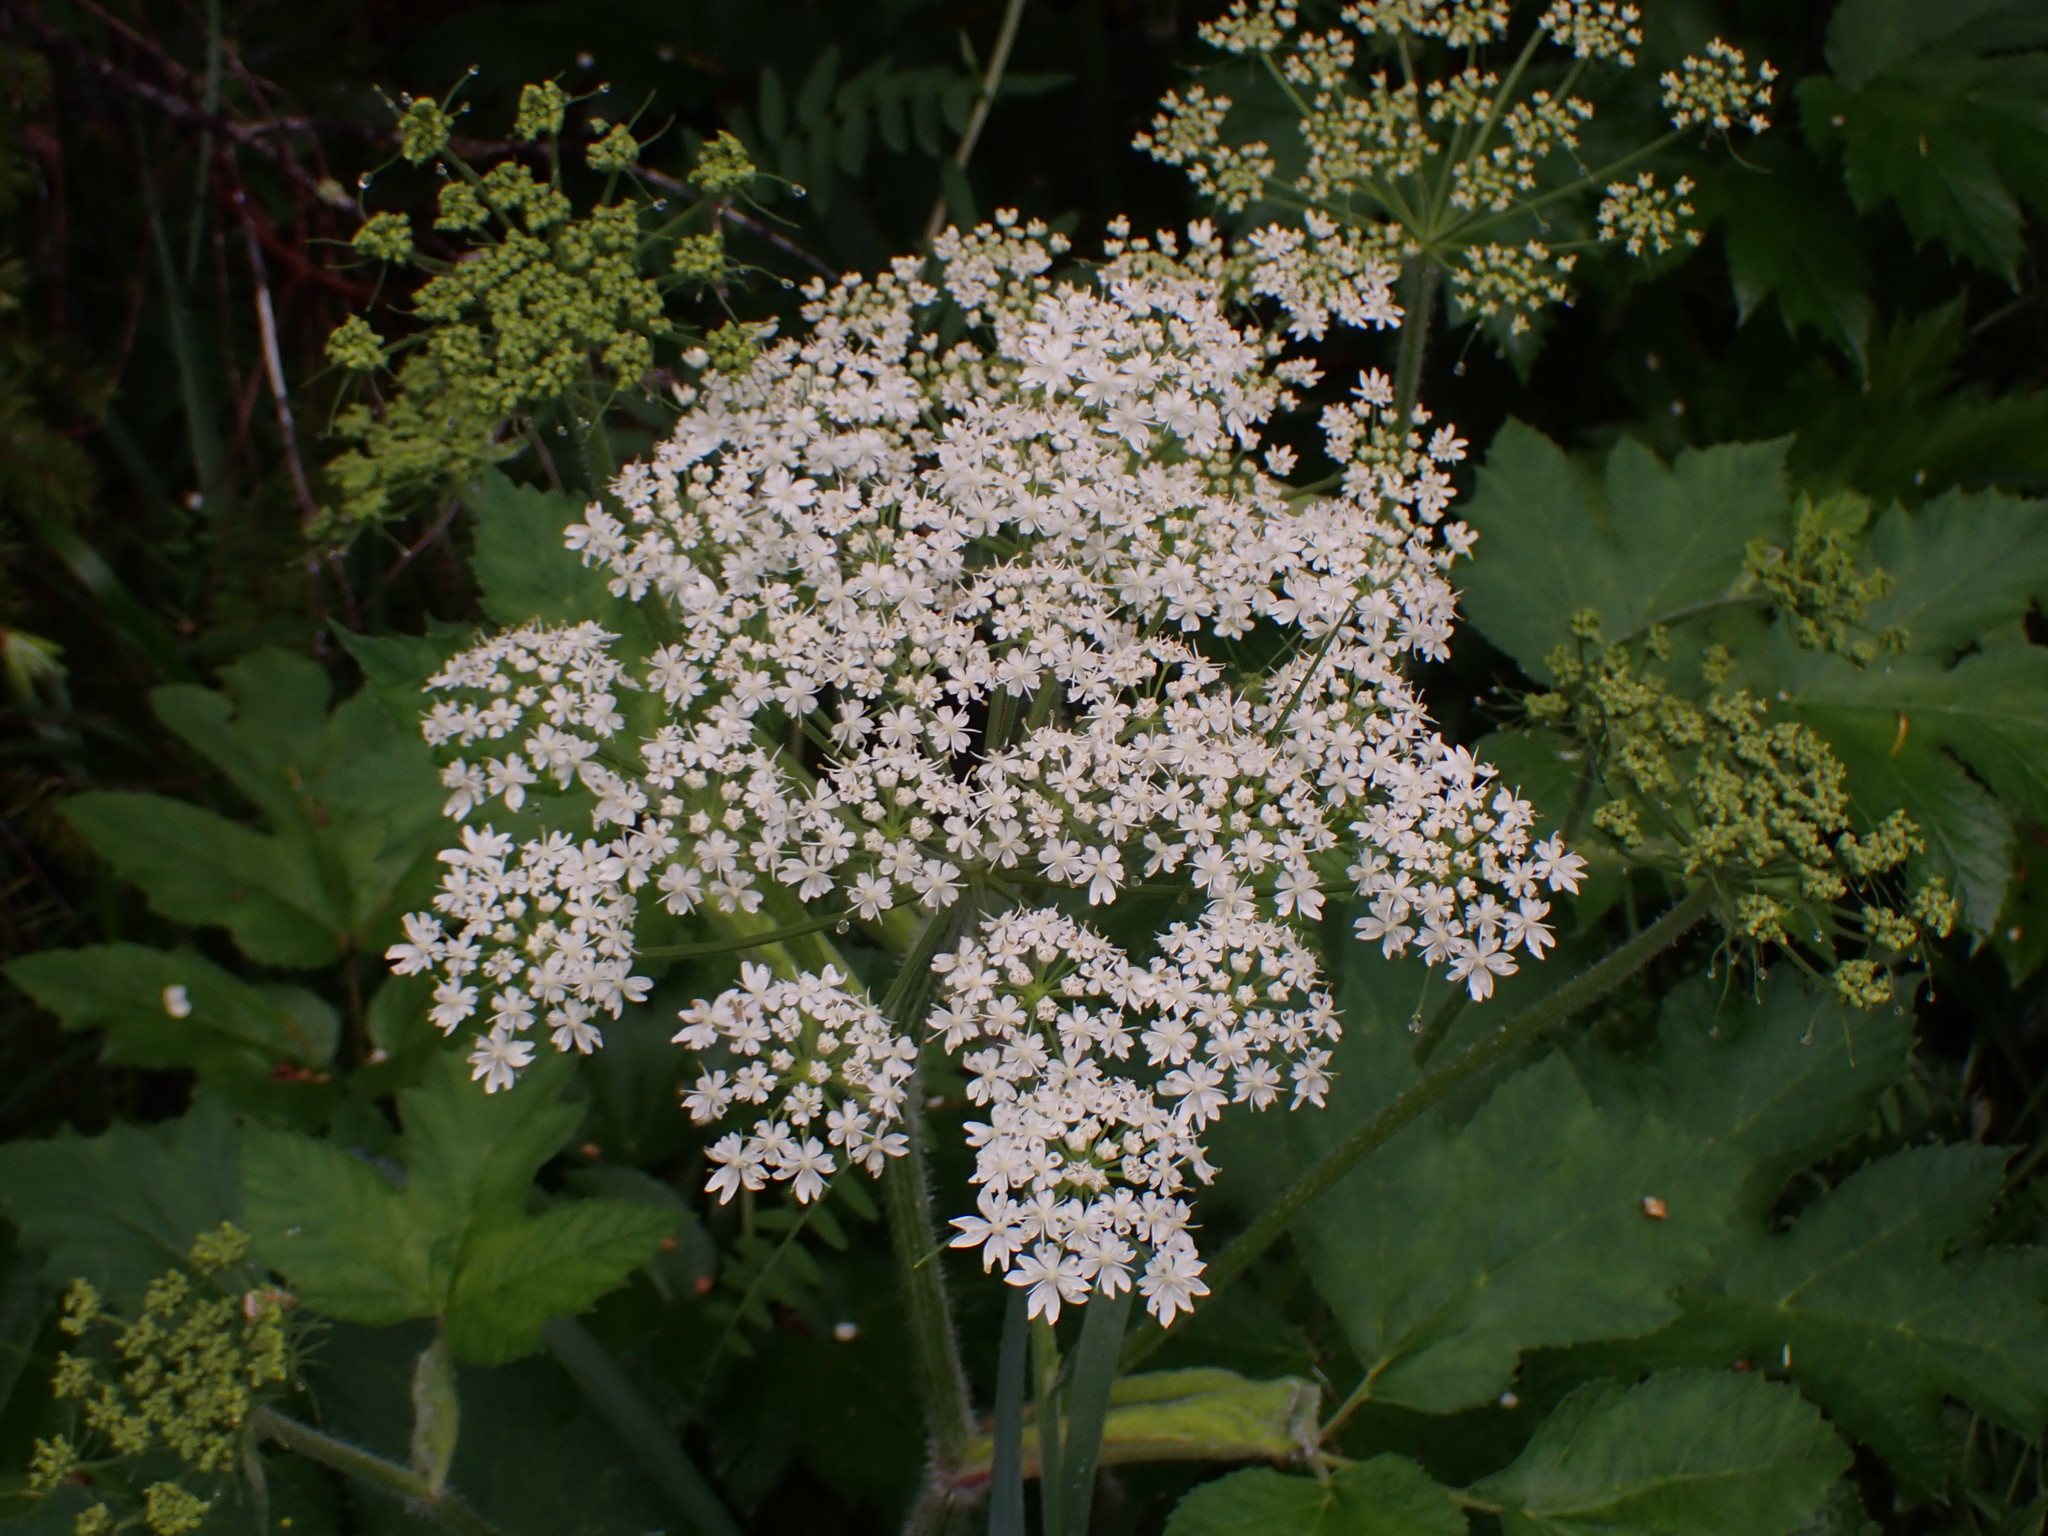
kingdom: Plantae
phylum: Tracheophyta
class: Magnoliopsida
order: Apiales
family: Apiaceae
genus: Heracleum
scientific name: Heracleum maximum
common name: American cow parsnip
